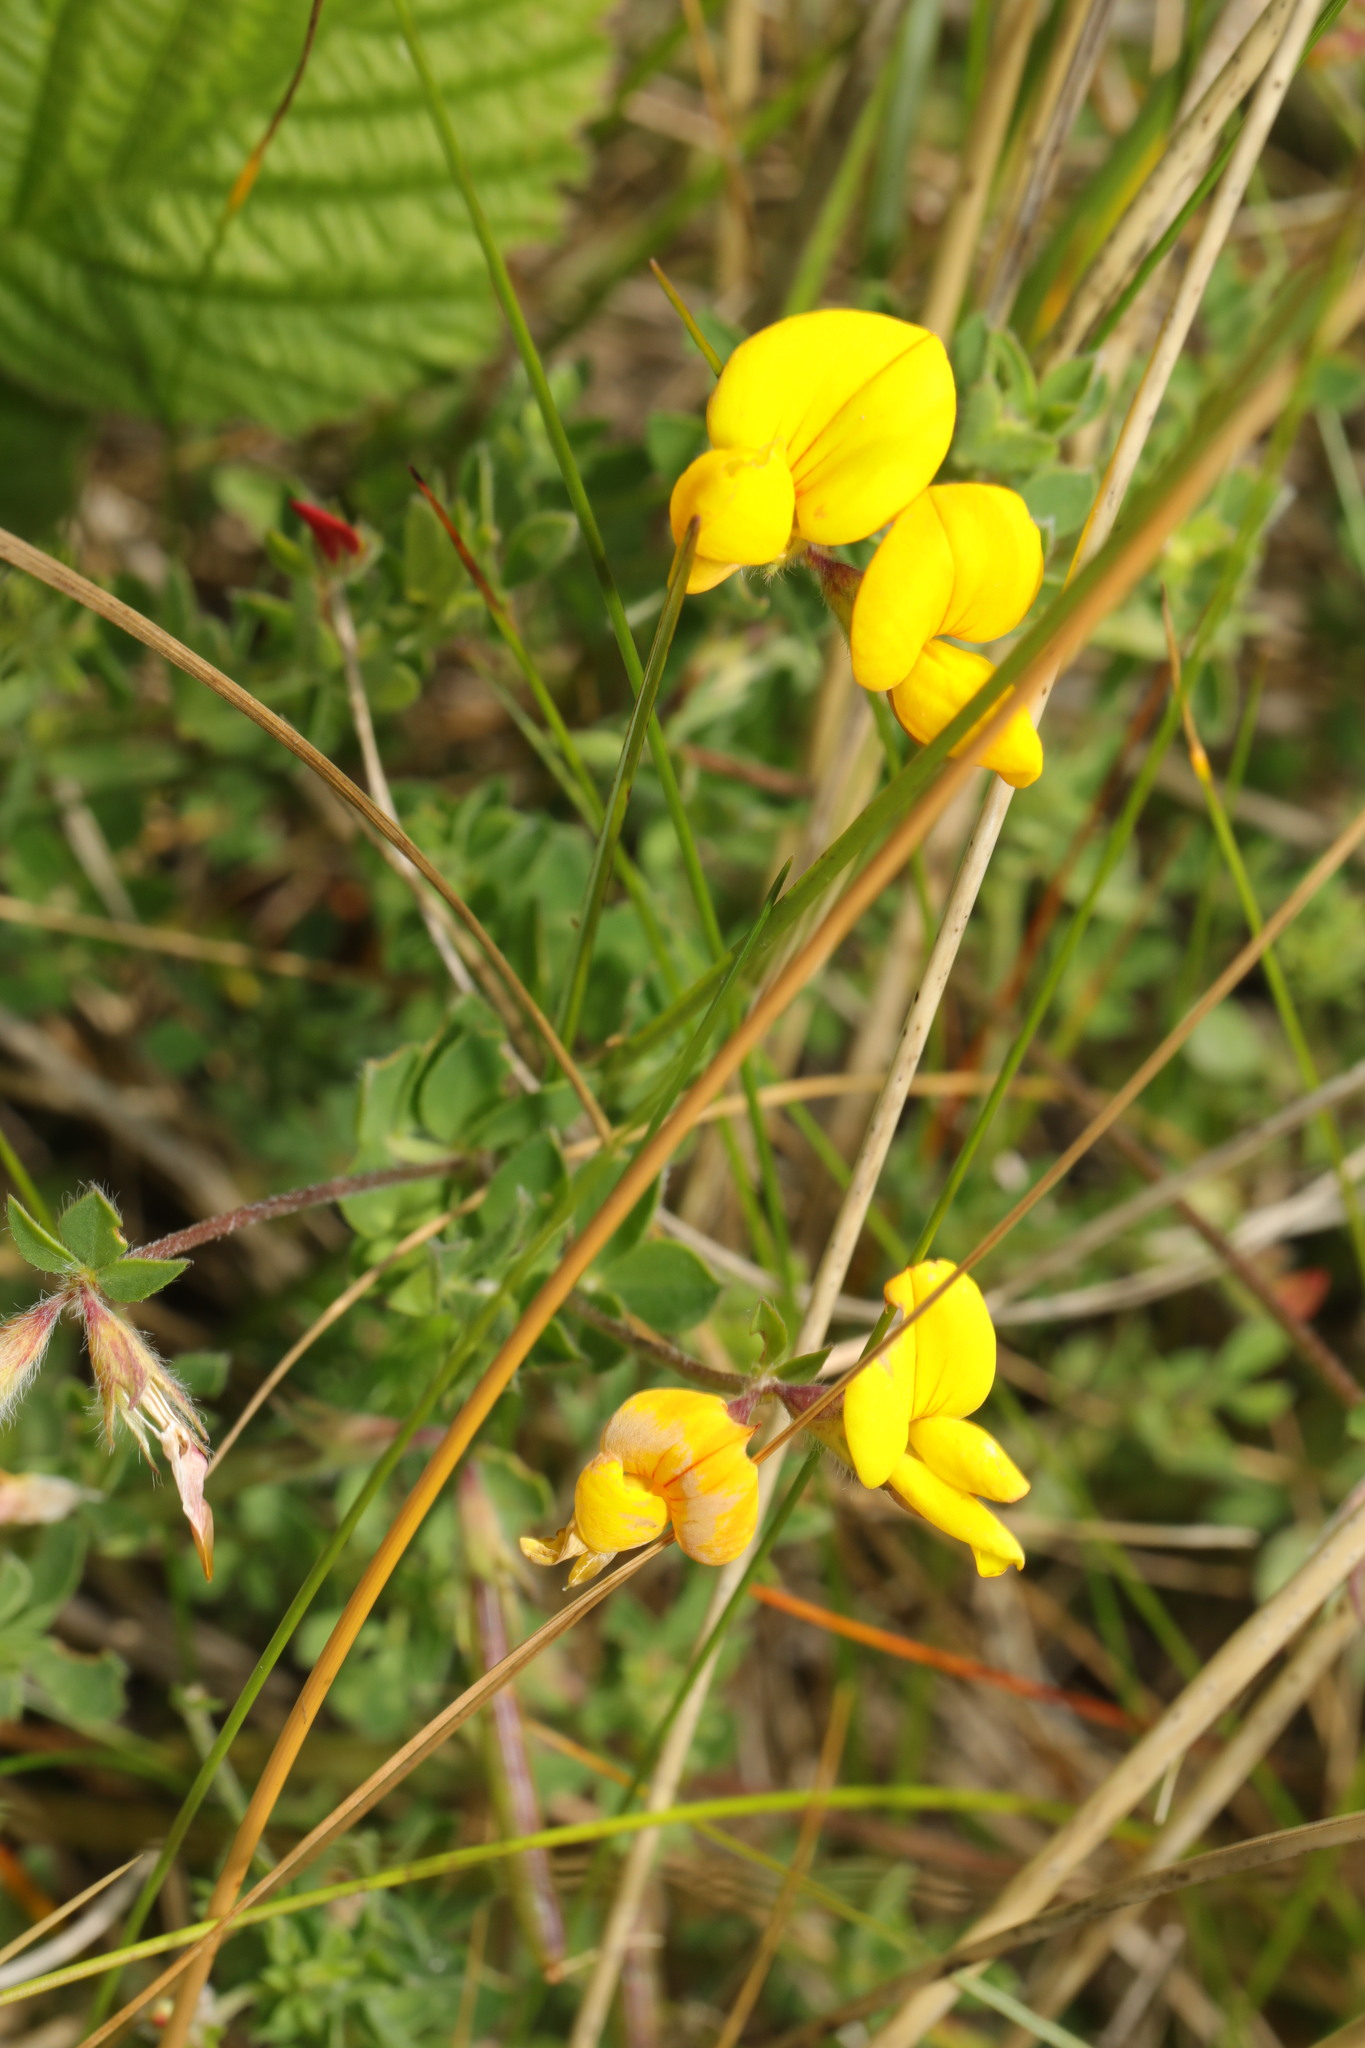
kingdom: Plantae
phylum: Tracheophyta
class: Magnoliopsida
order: Fabales
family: Fabaceae
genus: Lotus
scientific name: Lotus corniculatus
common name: Common bird's-foot-trefoil
